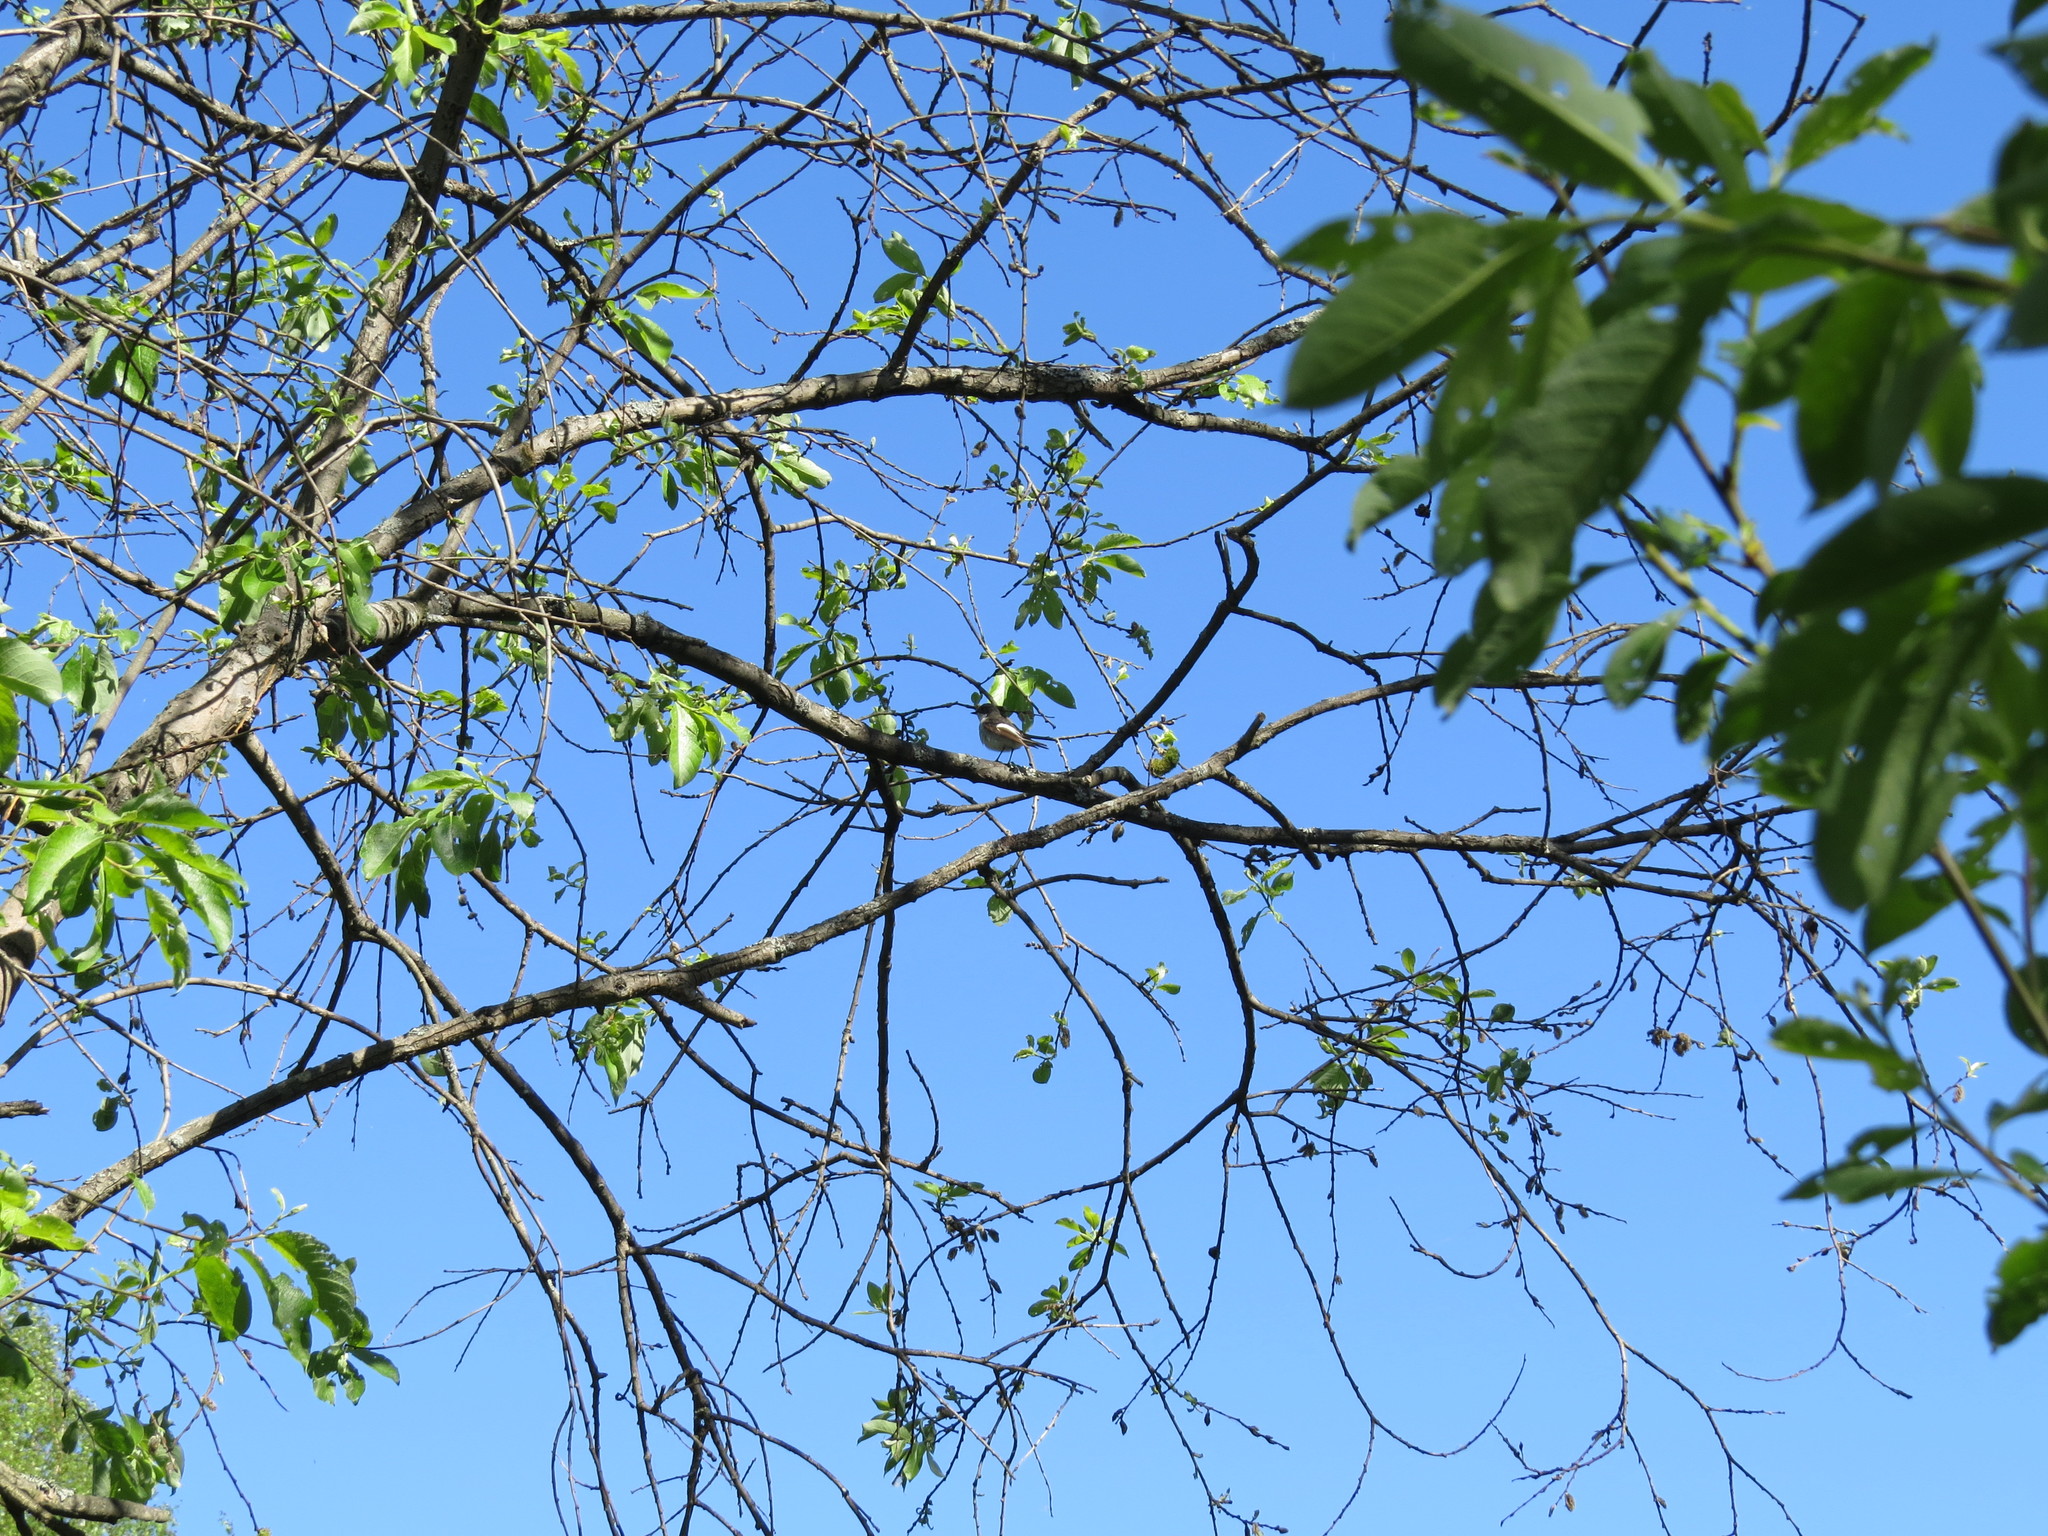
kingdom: Animalia
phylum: Chordata
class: Aves
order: Passeriformes
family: Muscicapidae
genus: Ficedula
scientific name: Ficedula hypoleuca
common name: European pied flycatcher
